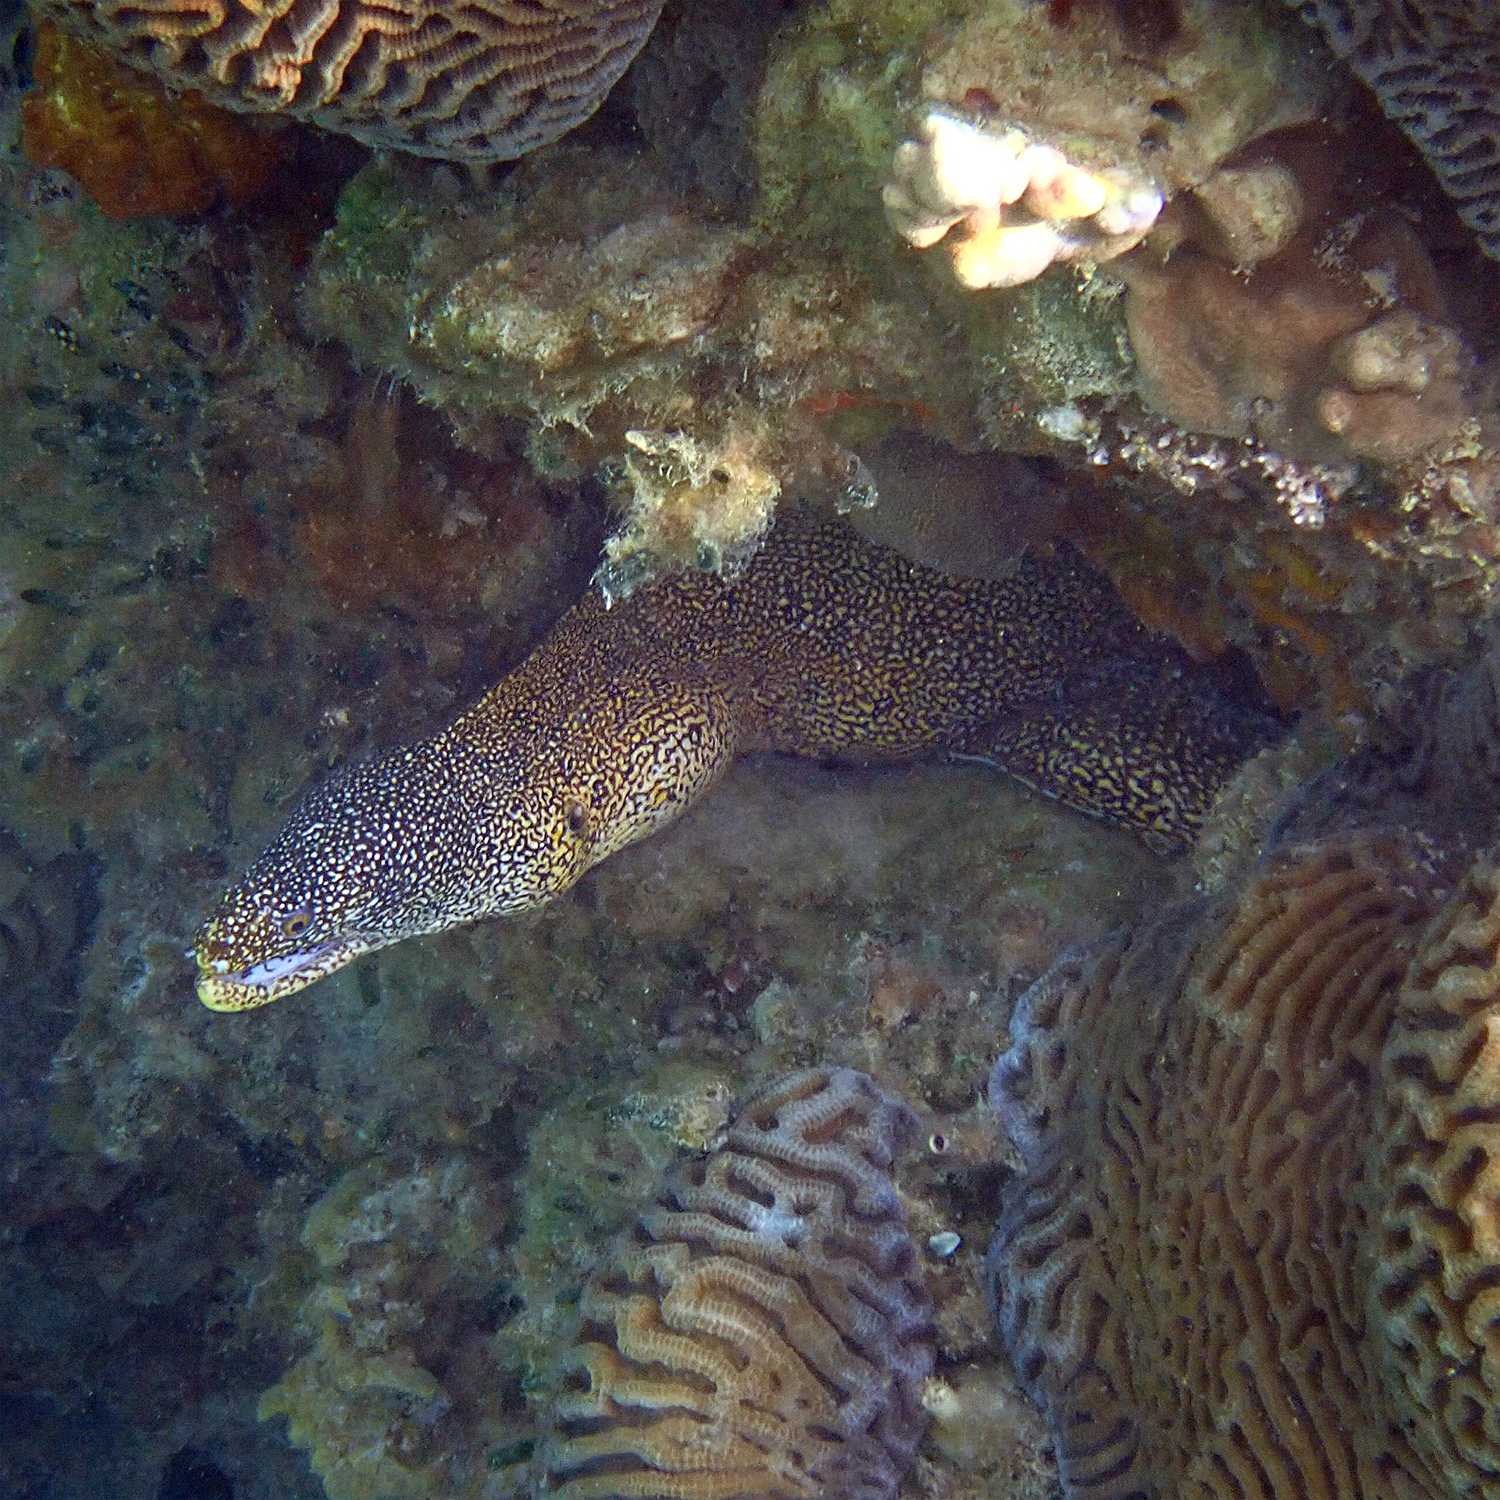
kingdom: Animalia
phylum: Chordata
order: Anguilliformes
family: Muraenidae
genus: Gymnothorax
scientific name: Gymnothorax eurostus
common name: Stout moray
